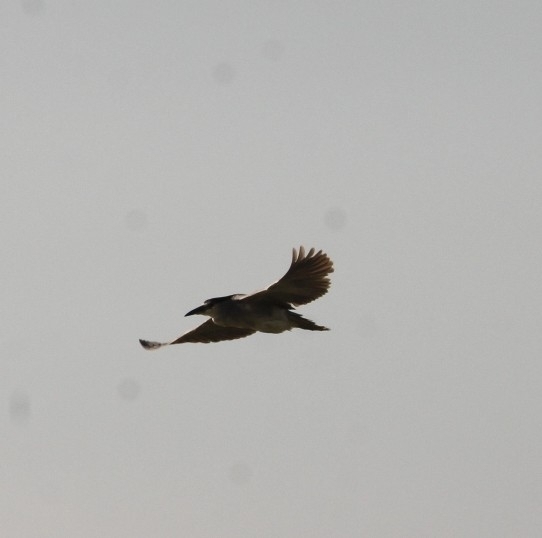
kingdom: Animalia
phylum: Chordata
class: Aves
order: Pelecaniformes
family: Ardeidae
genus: Nycticorax
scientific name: Nycticorax nycticorax
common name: Black-crowned night heron
